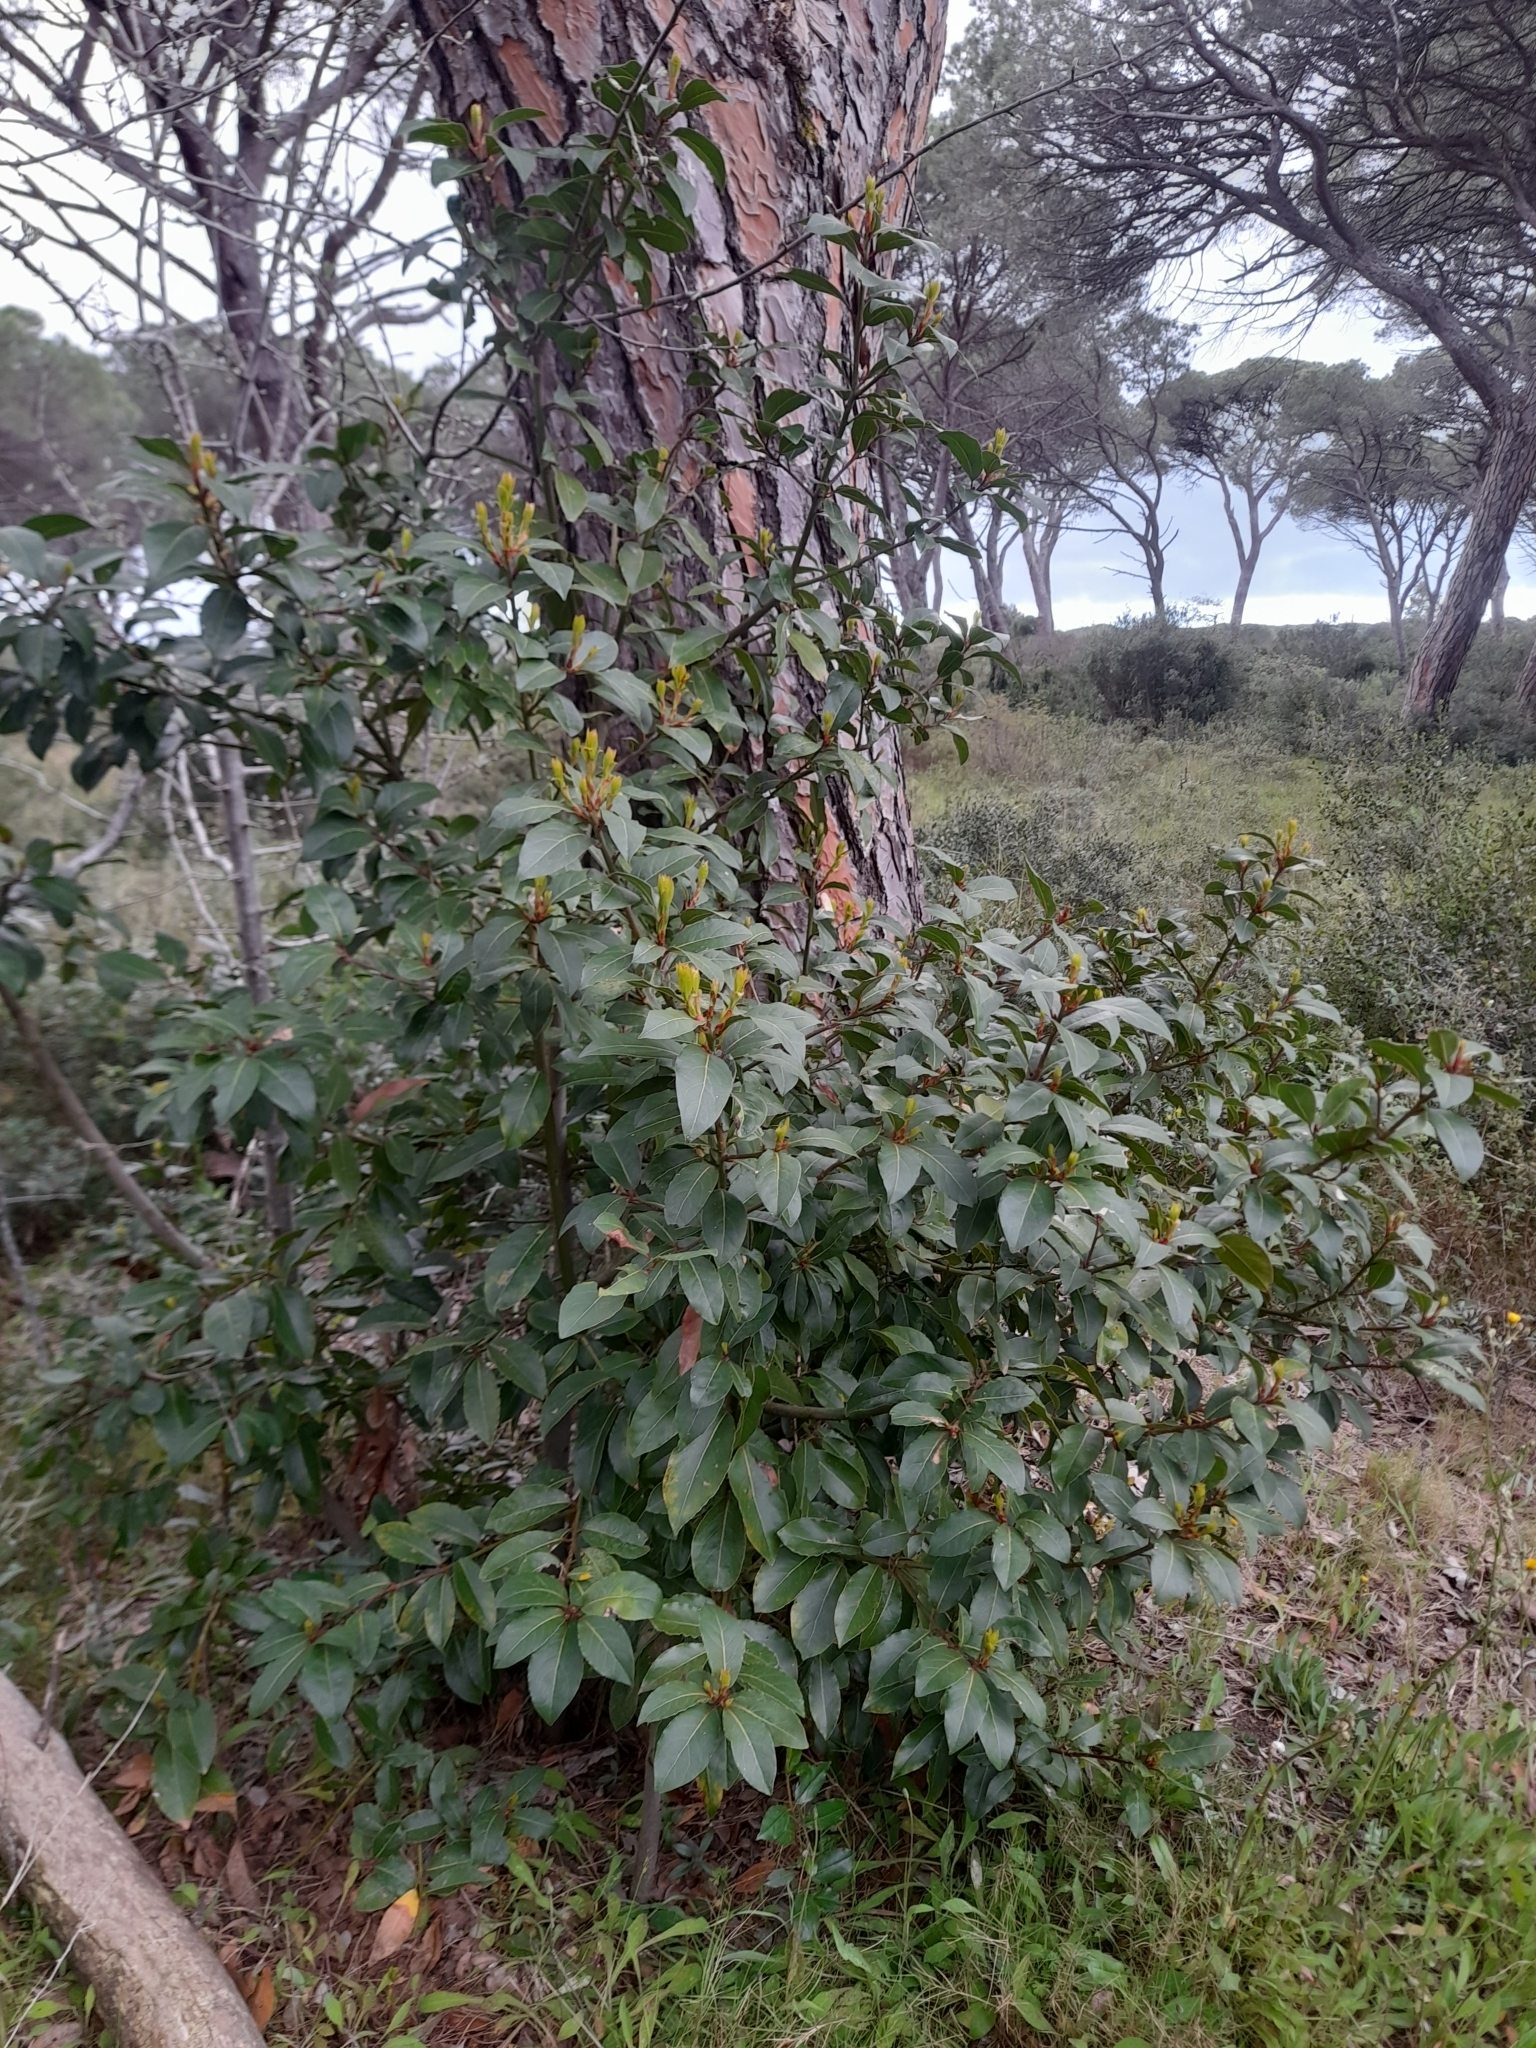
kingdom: Plantae
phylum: Tracheophyta
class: Magnoliopsida
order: Laurales
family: Lauraceae
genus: Laurus
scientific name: Laurus nobilis
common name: Bay
